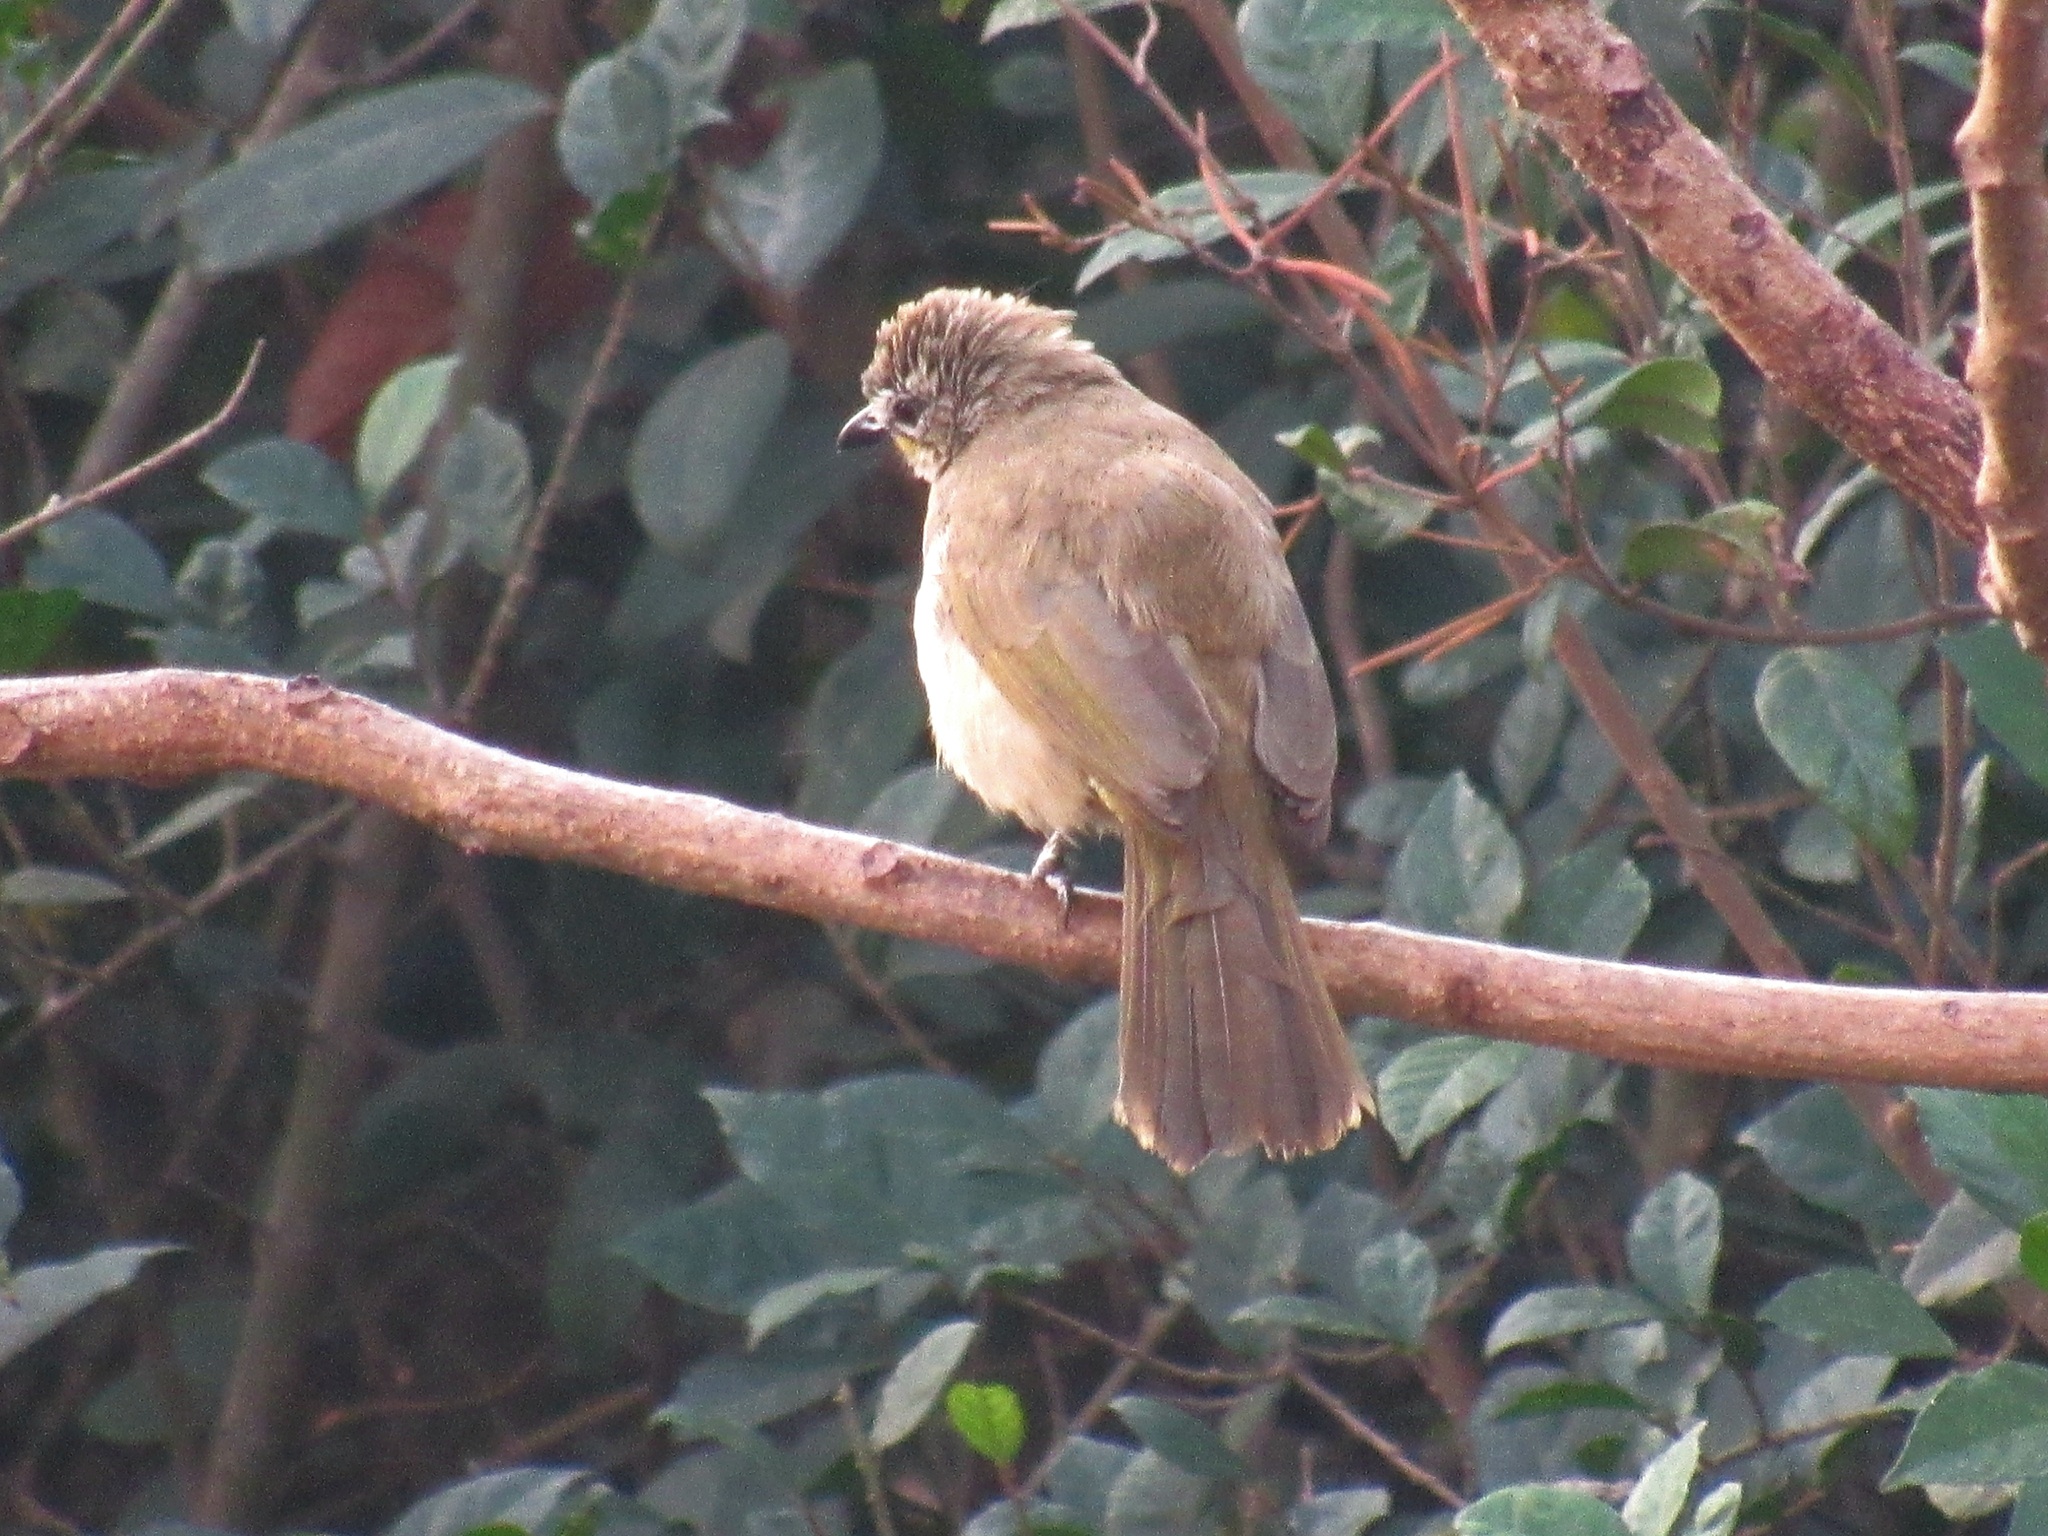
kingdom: Animalia
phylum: Chordata
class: Aves
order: Passeriformes
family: Pycnonotidae
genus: Pycnonotus
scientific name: Pycnonotus luteolus
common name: White-browed bulbul
